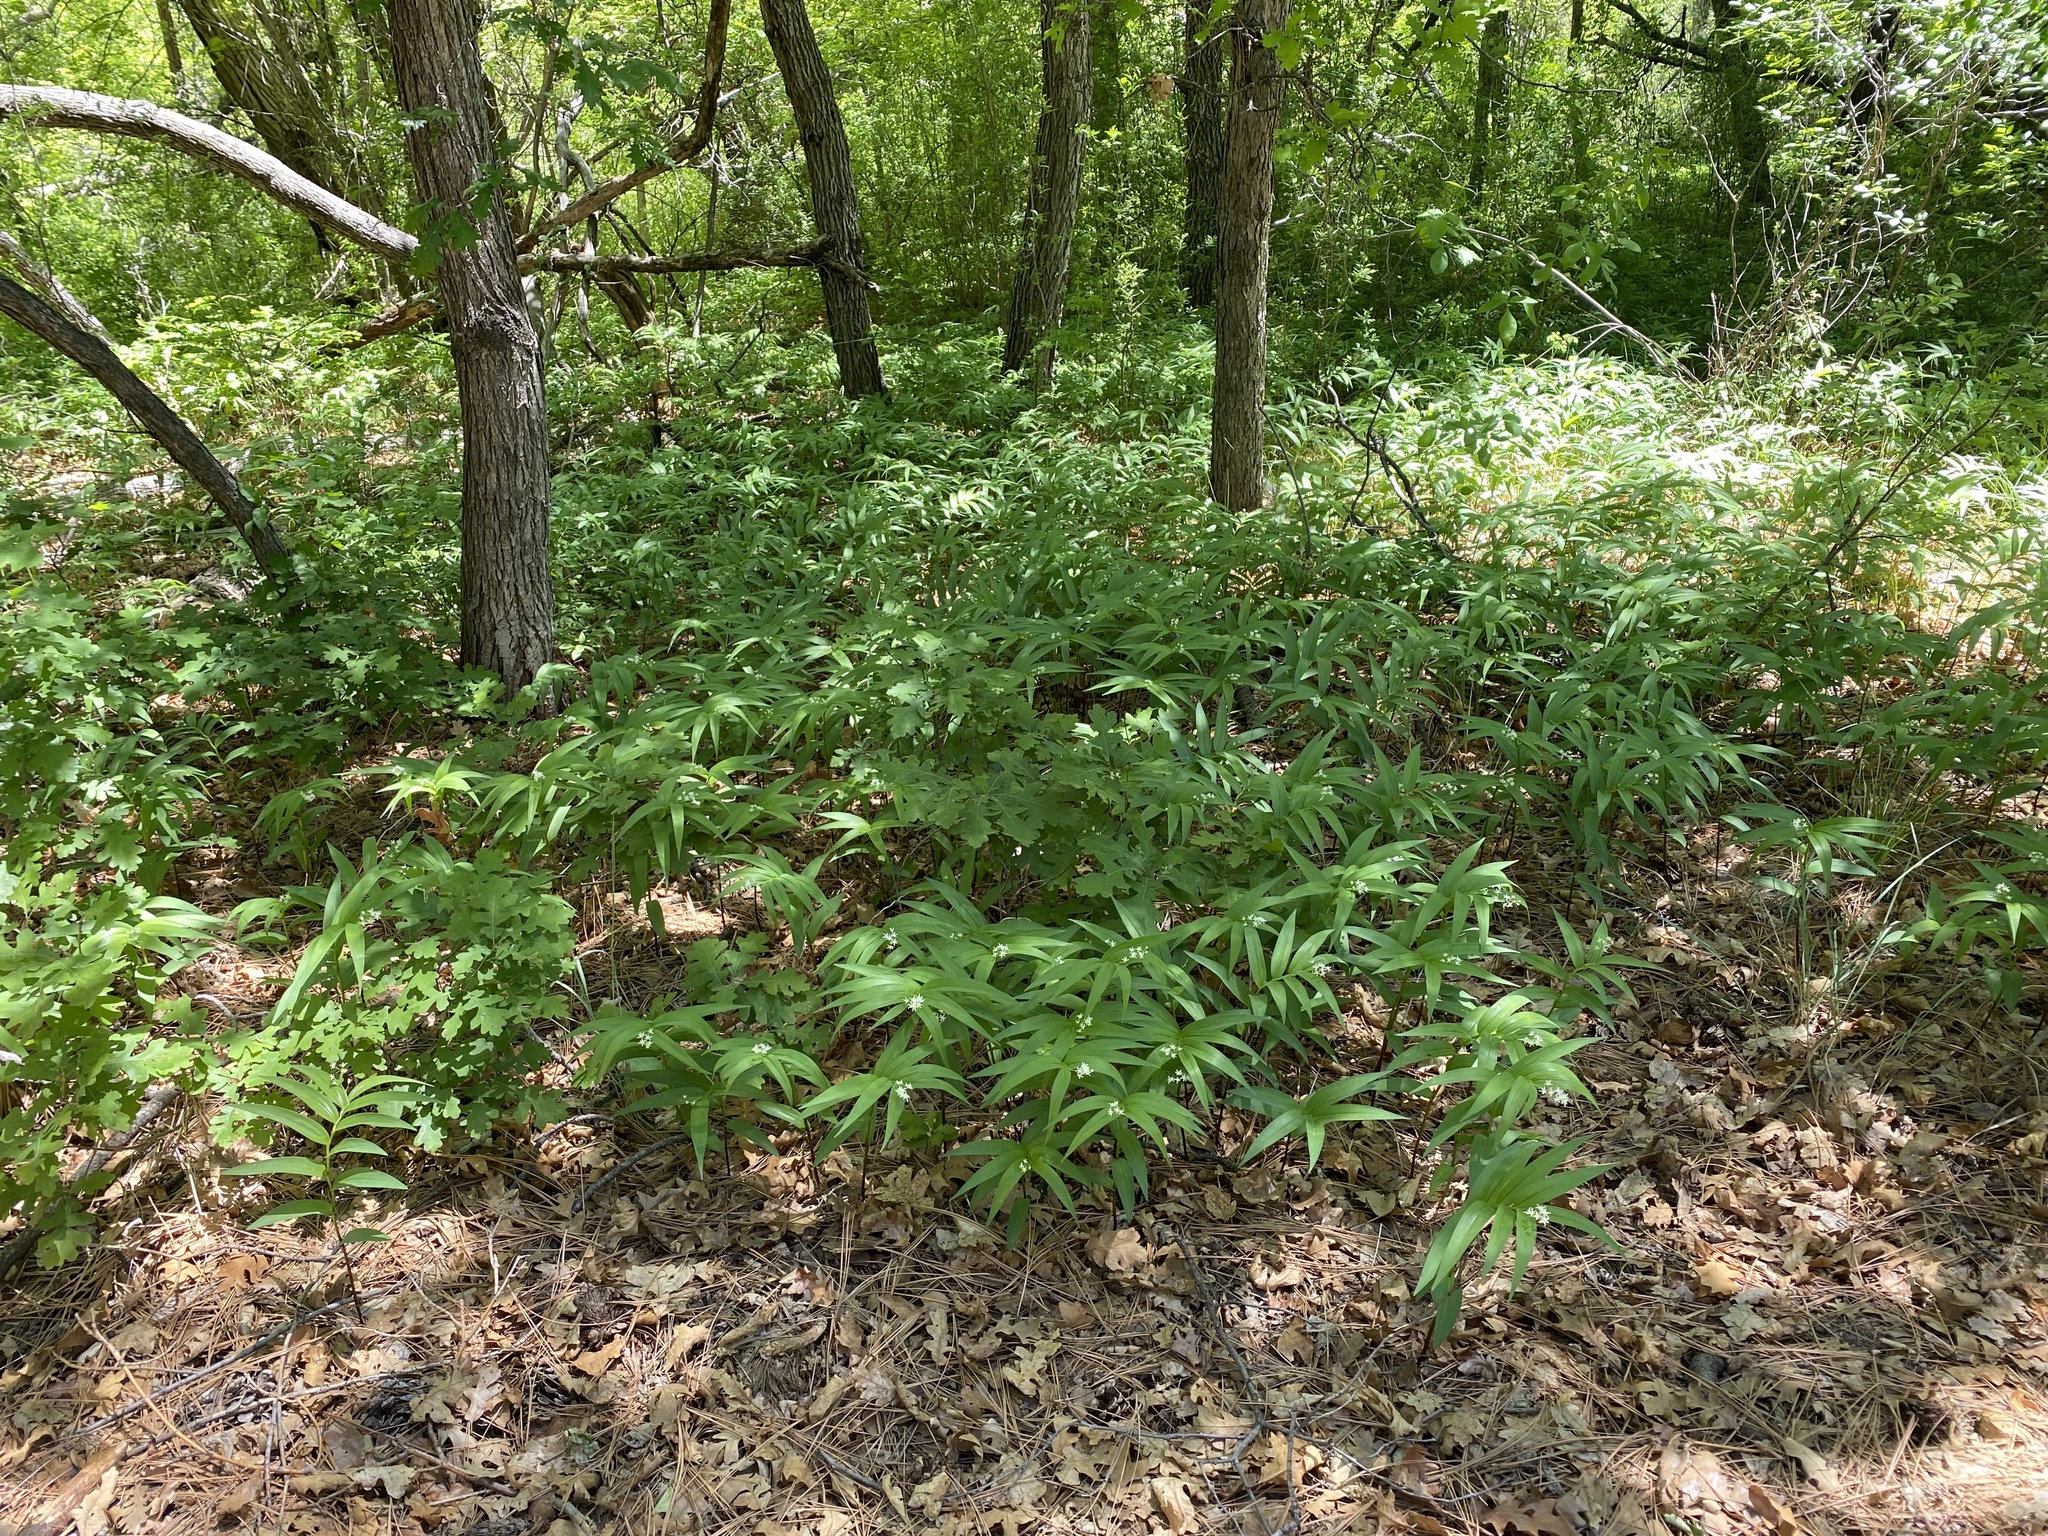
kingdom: Plantae
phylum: Tracheophyta
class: Liliopsida
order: Asparagales
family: Asparagaceae
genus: Maianthemum
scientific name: Maianthemum stellatum
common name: Little false solomon's seal
